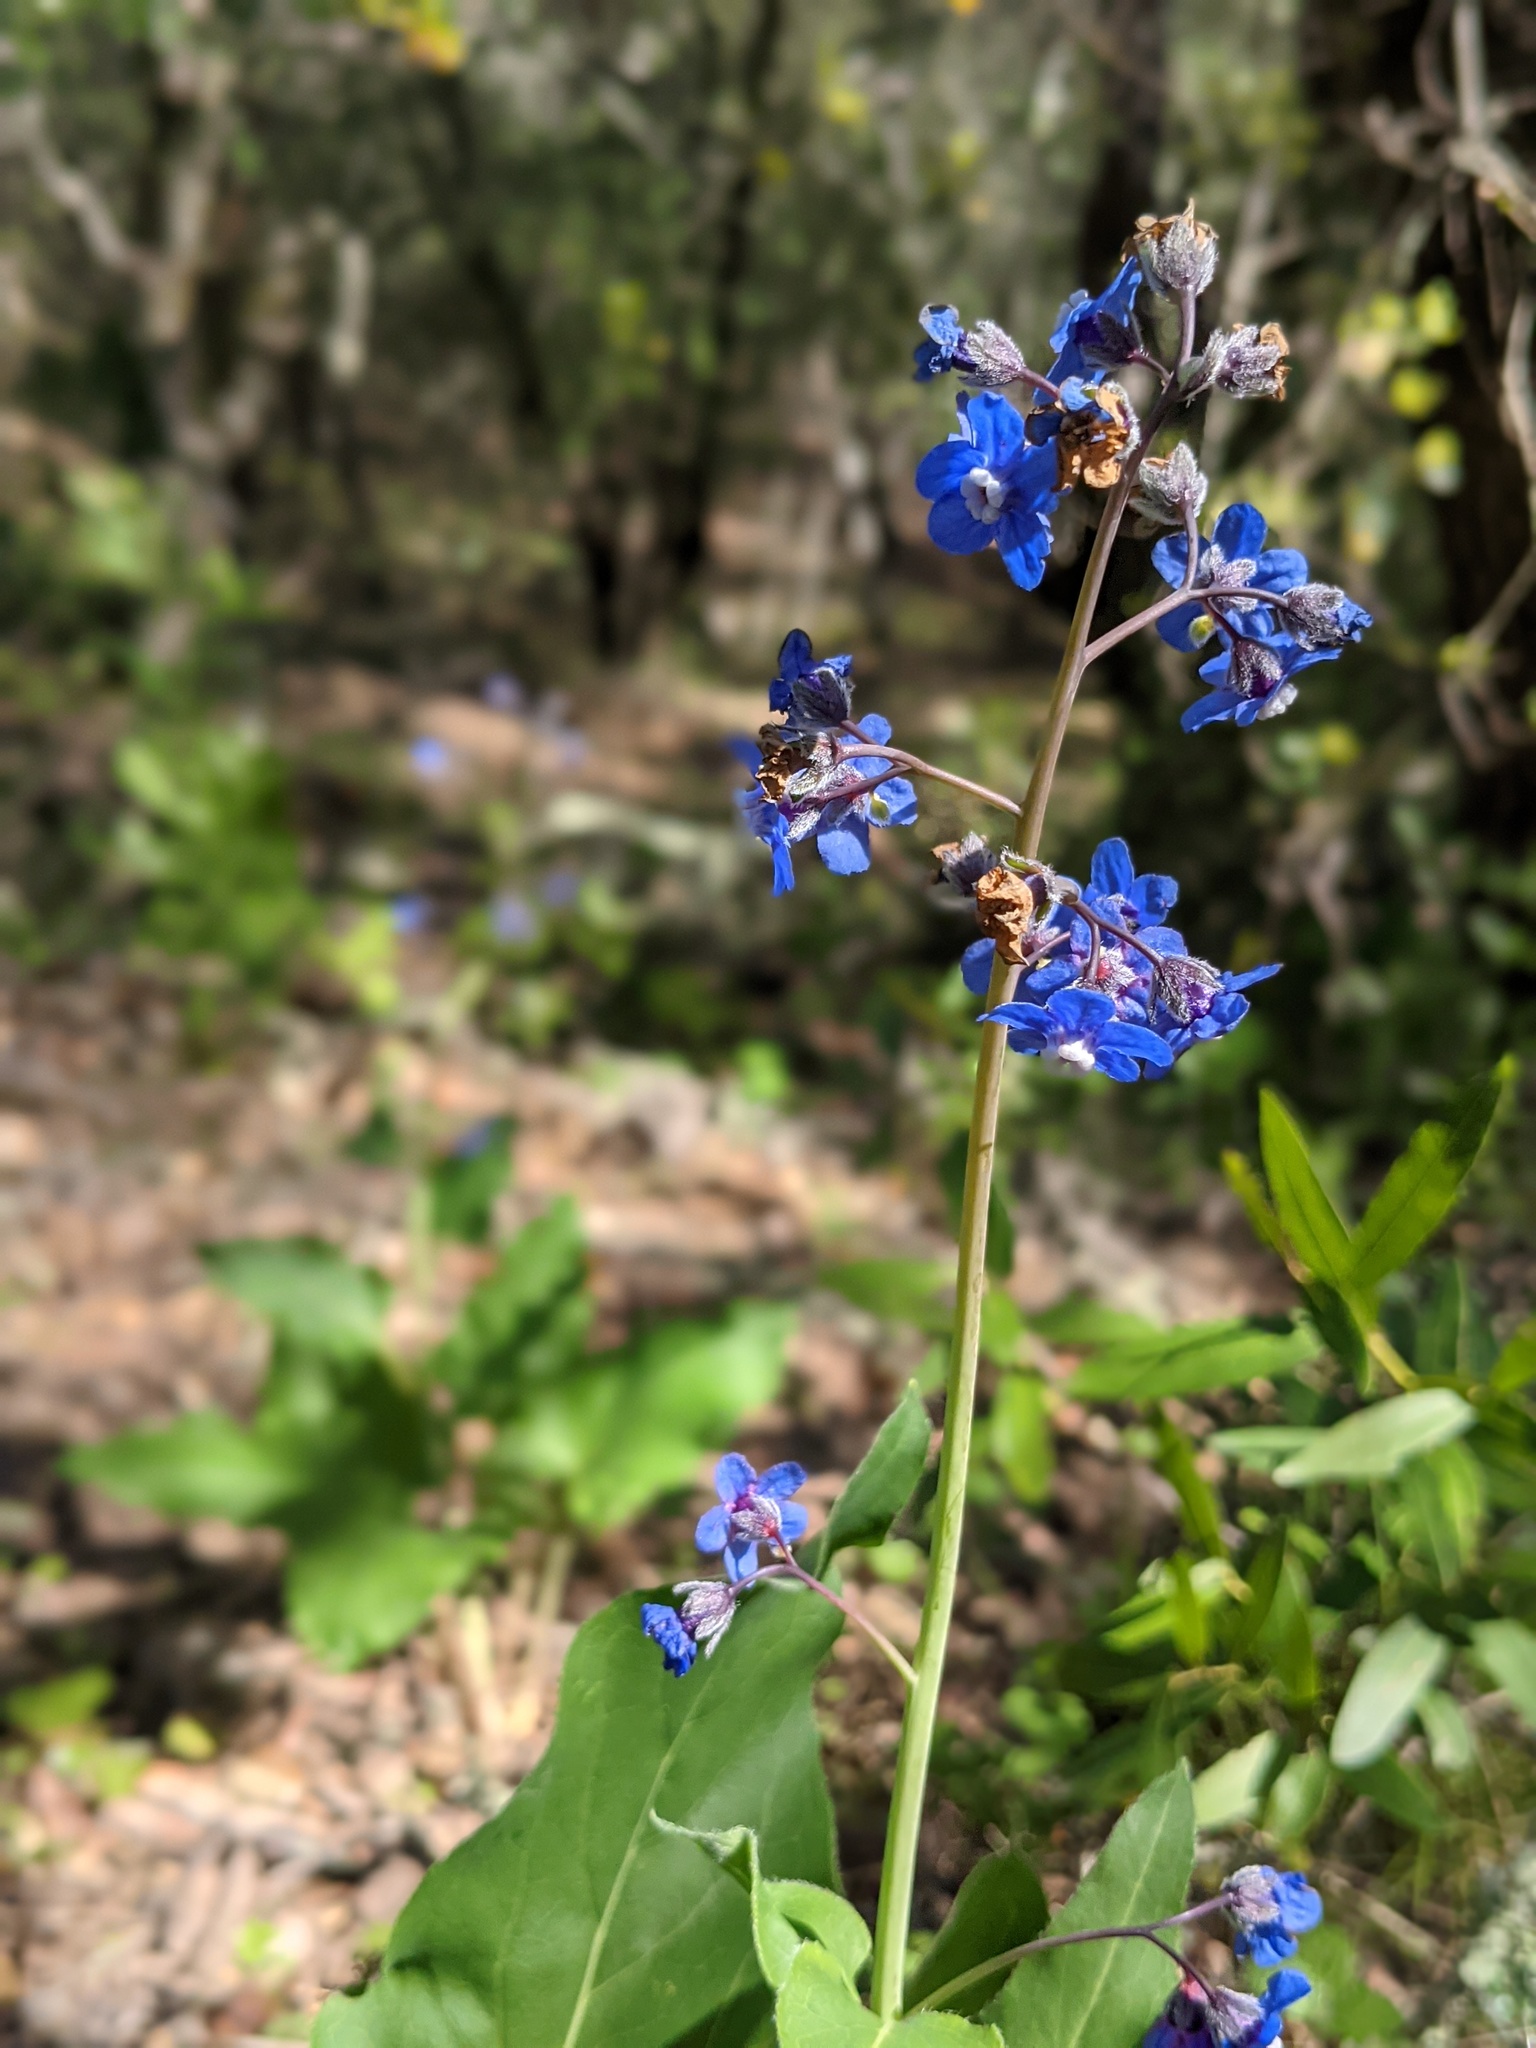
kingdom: Plantae
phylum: Tracheophyta
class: Magnoliopsida
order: Boraginales
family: Boraginaceae
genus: Adelinia
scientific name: Adelinia grande
